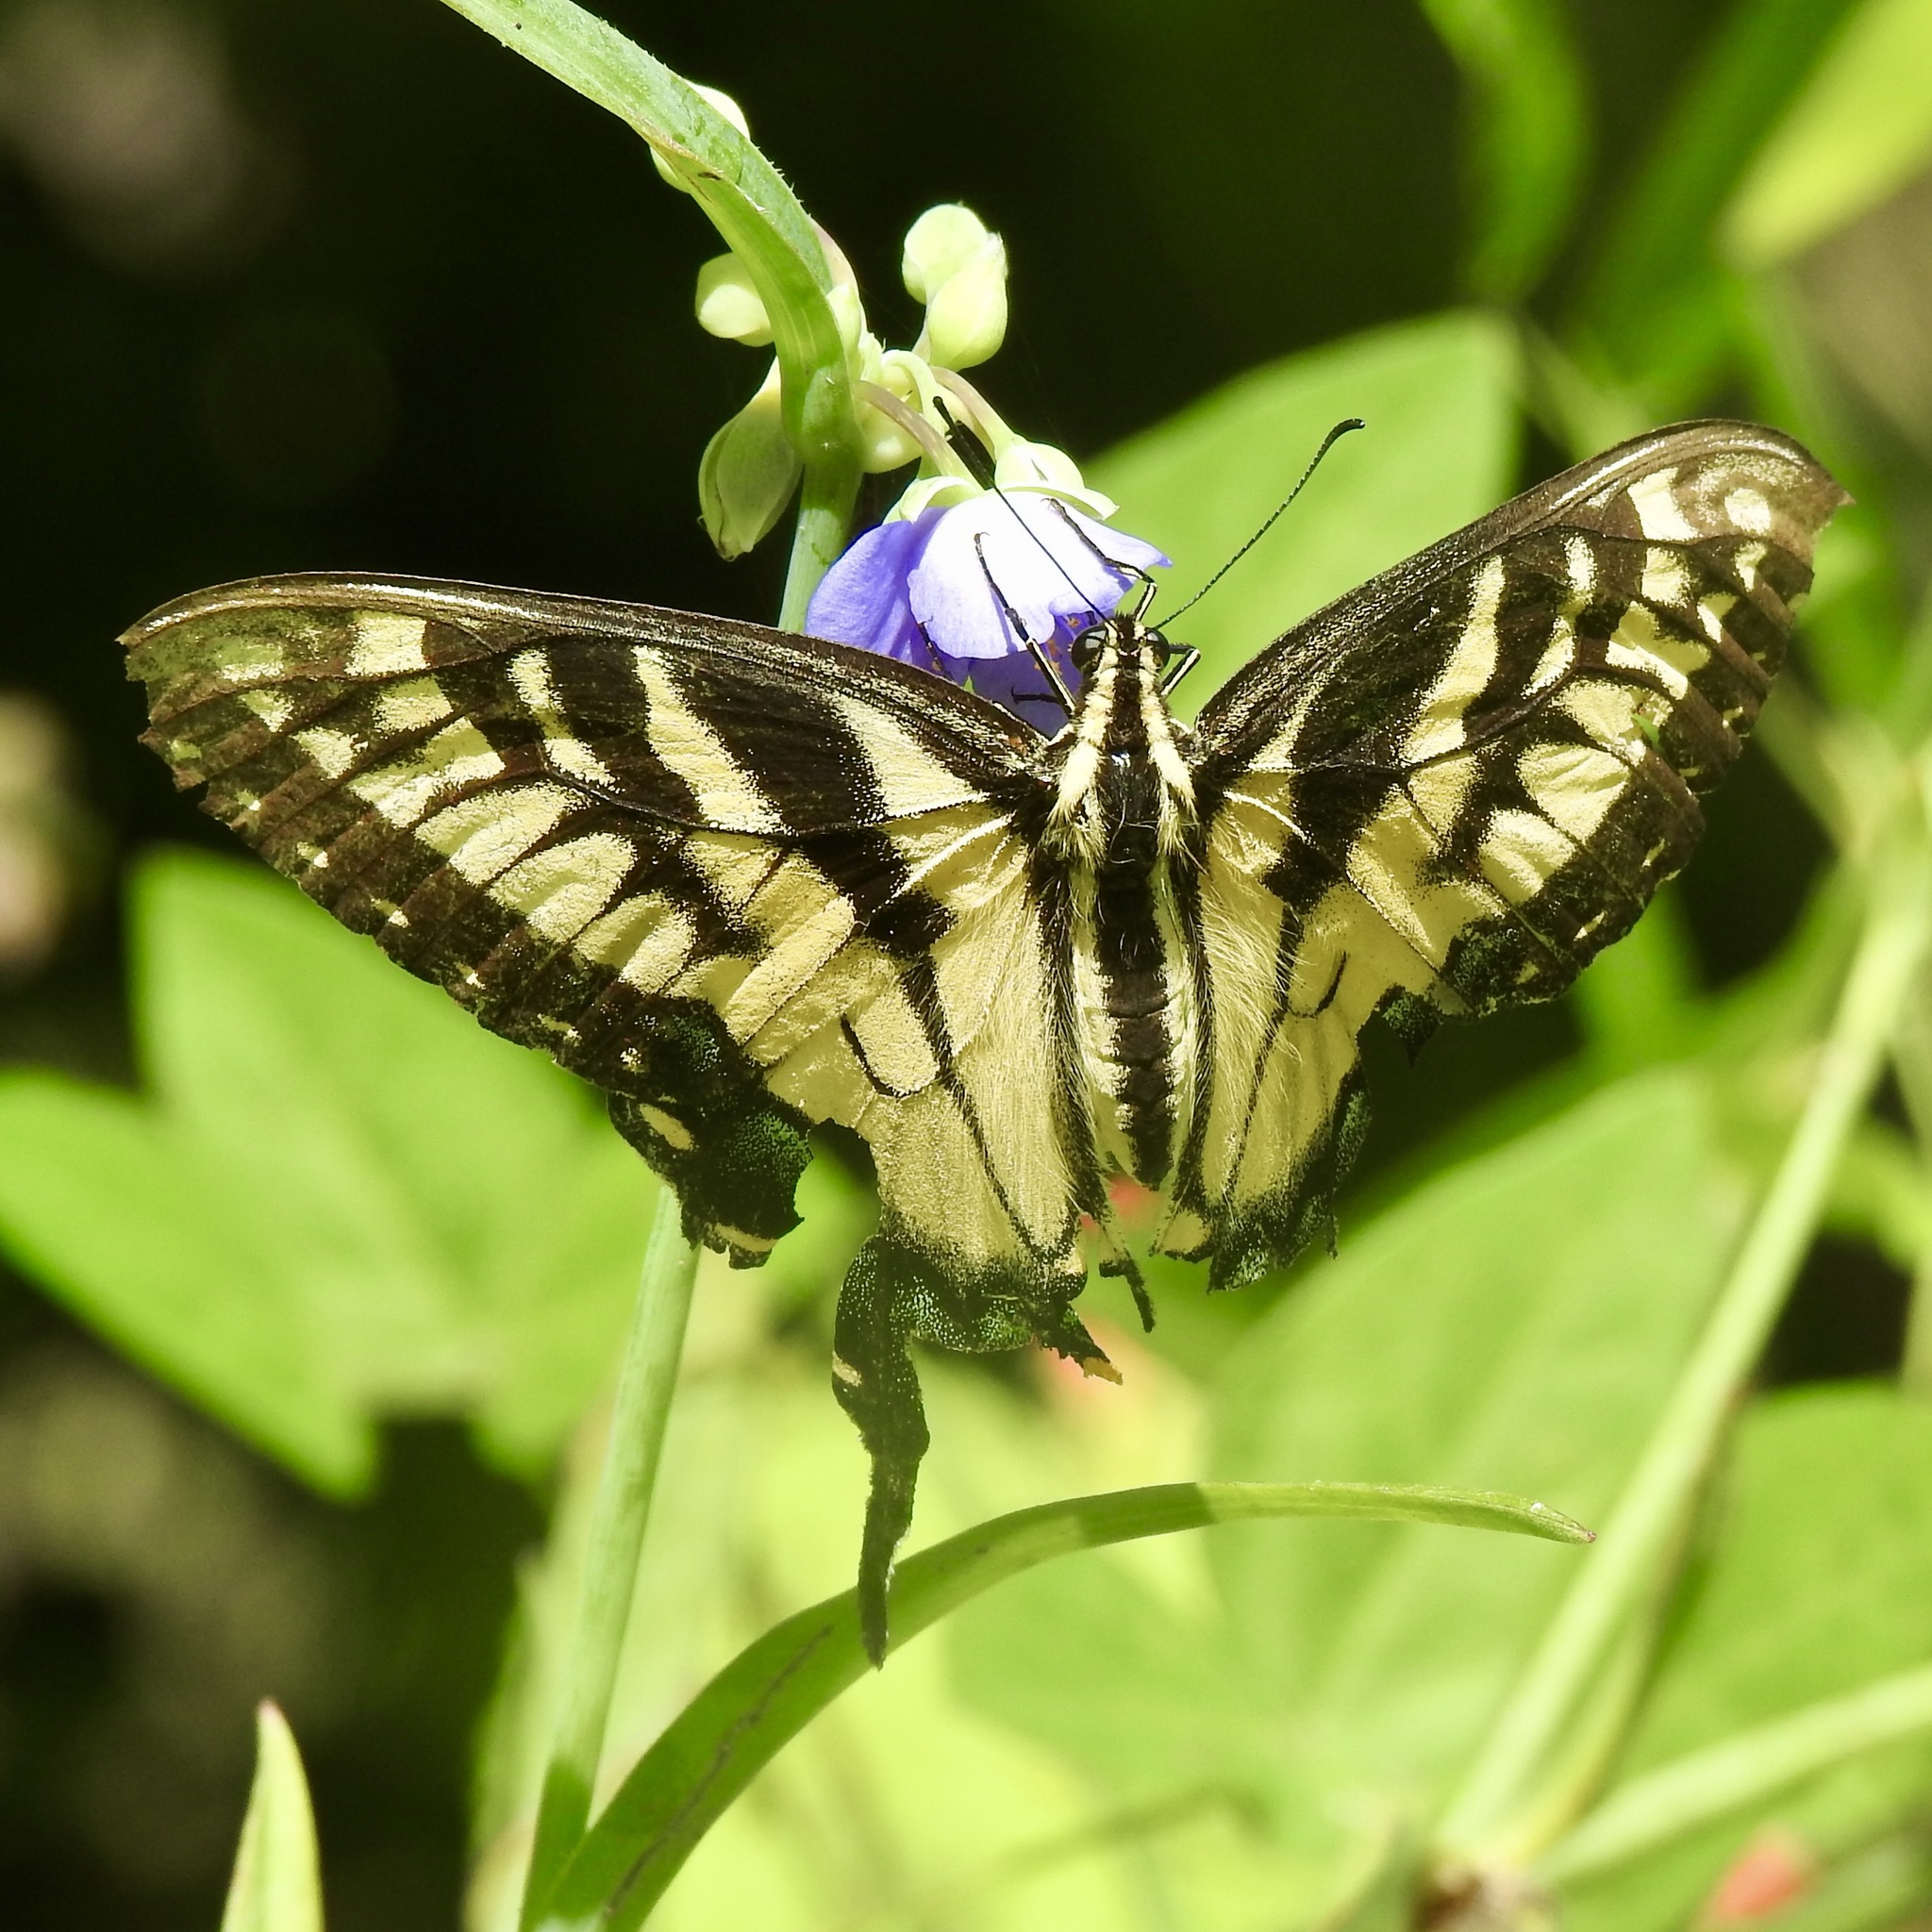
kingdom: Animalia
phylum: Arthropoda
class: Insecta
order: Lepidoptera
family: Papilionidae
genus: Papilio
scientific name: Papilio glaucus
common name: Tiger swallowtail
